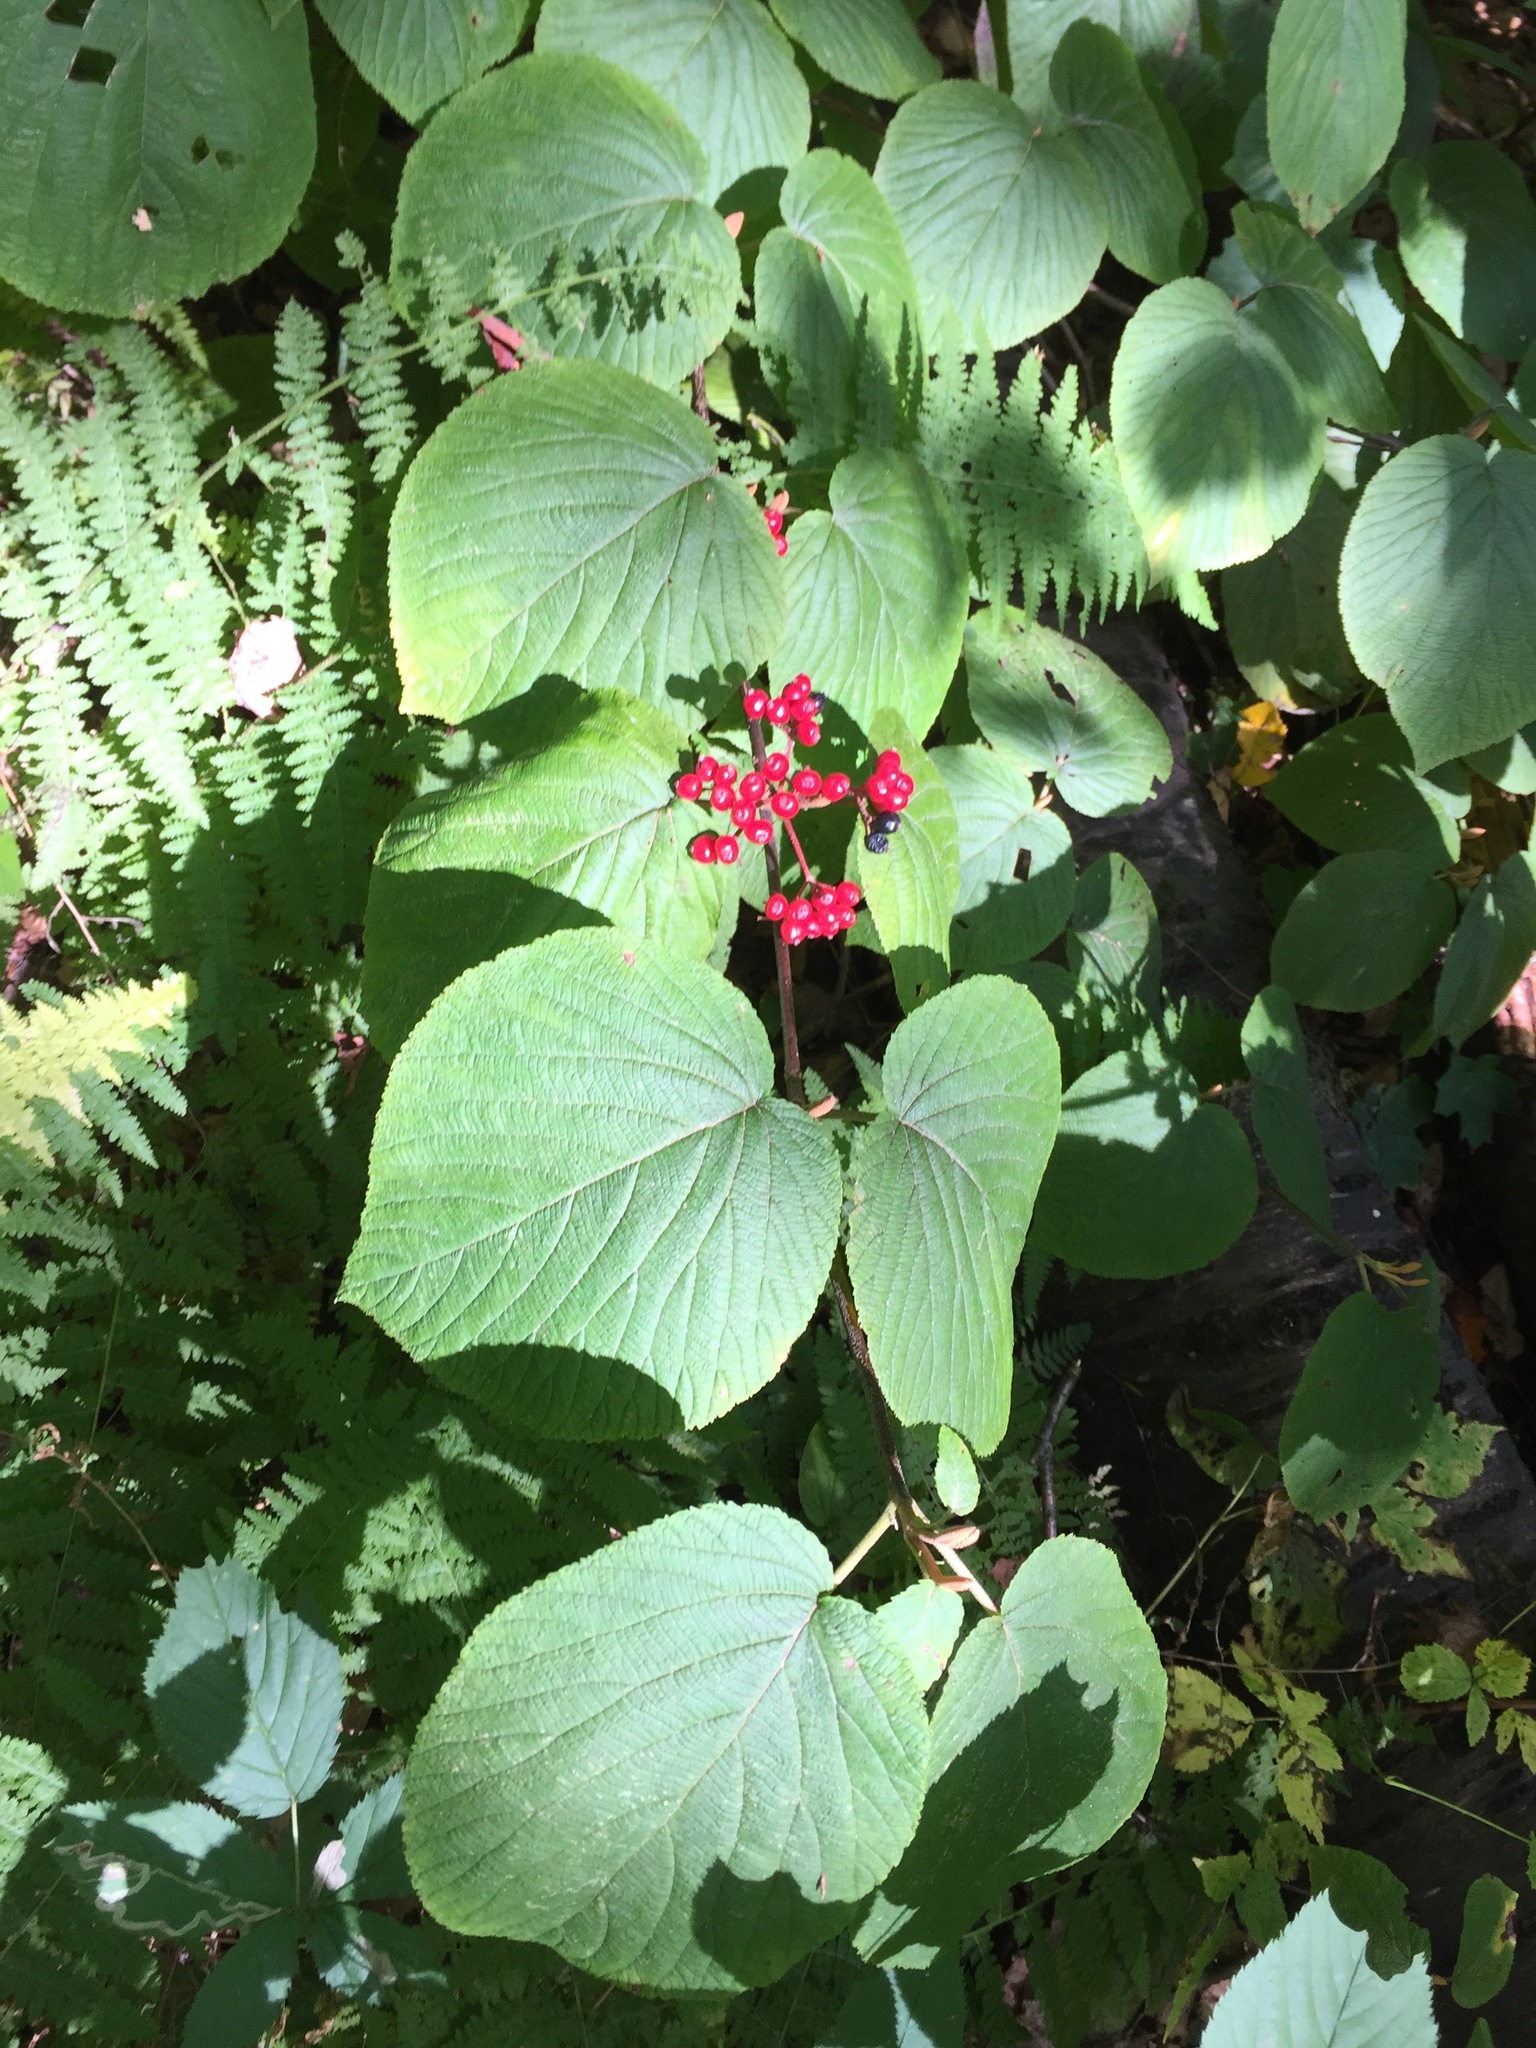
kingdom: Plantae
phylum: Tracheophyta
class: Magnoliopsida
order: Dipsacales
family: Viburnaceae
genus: Viburnum
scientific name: Viburnum lantanoides
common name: Hobblebush
